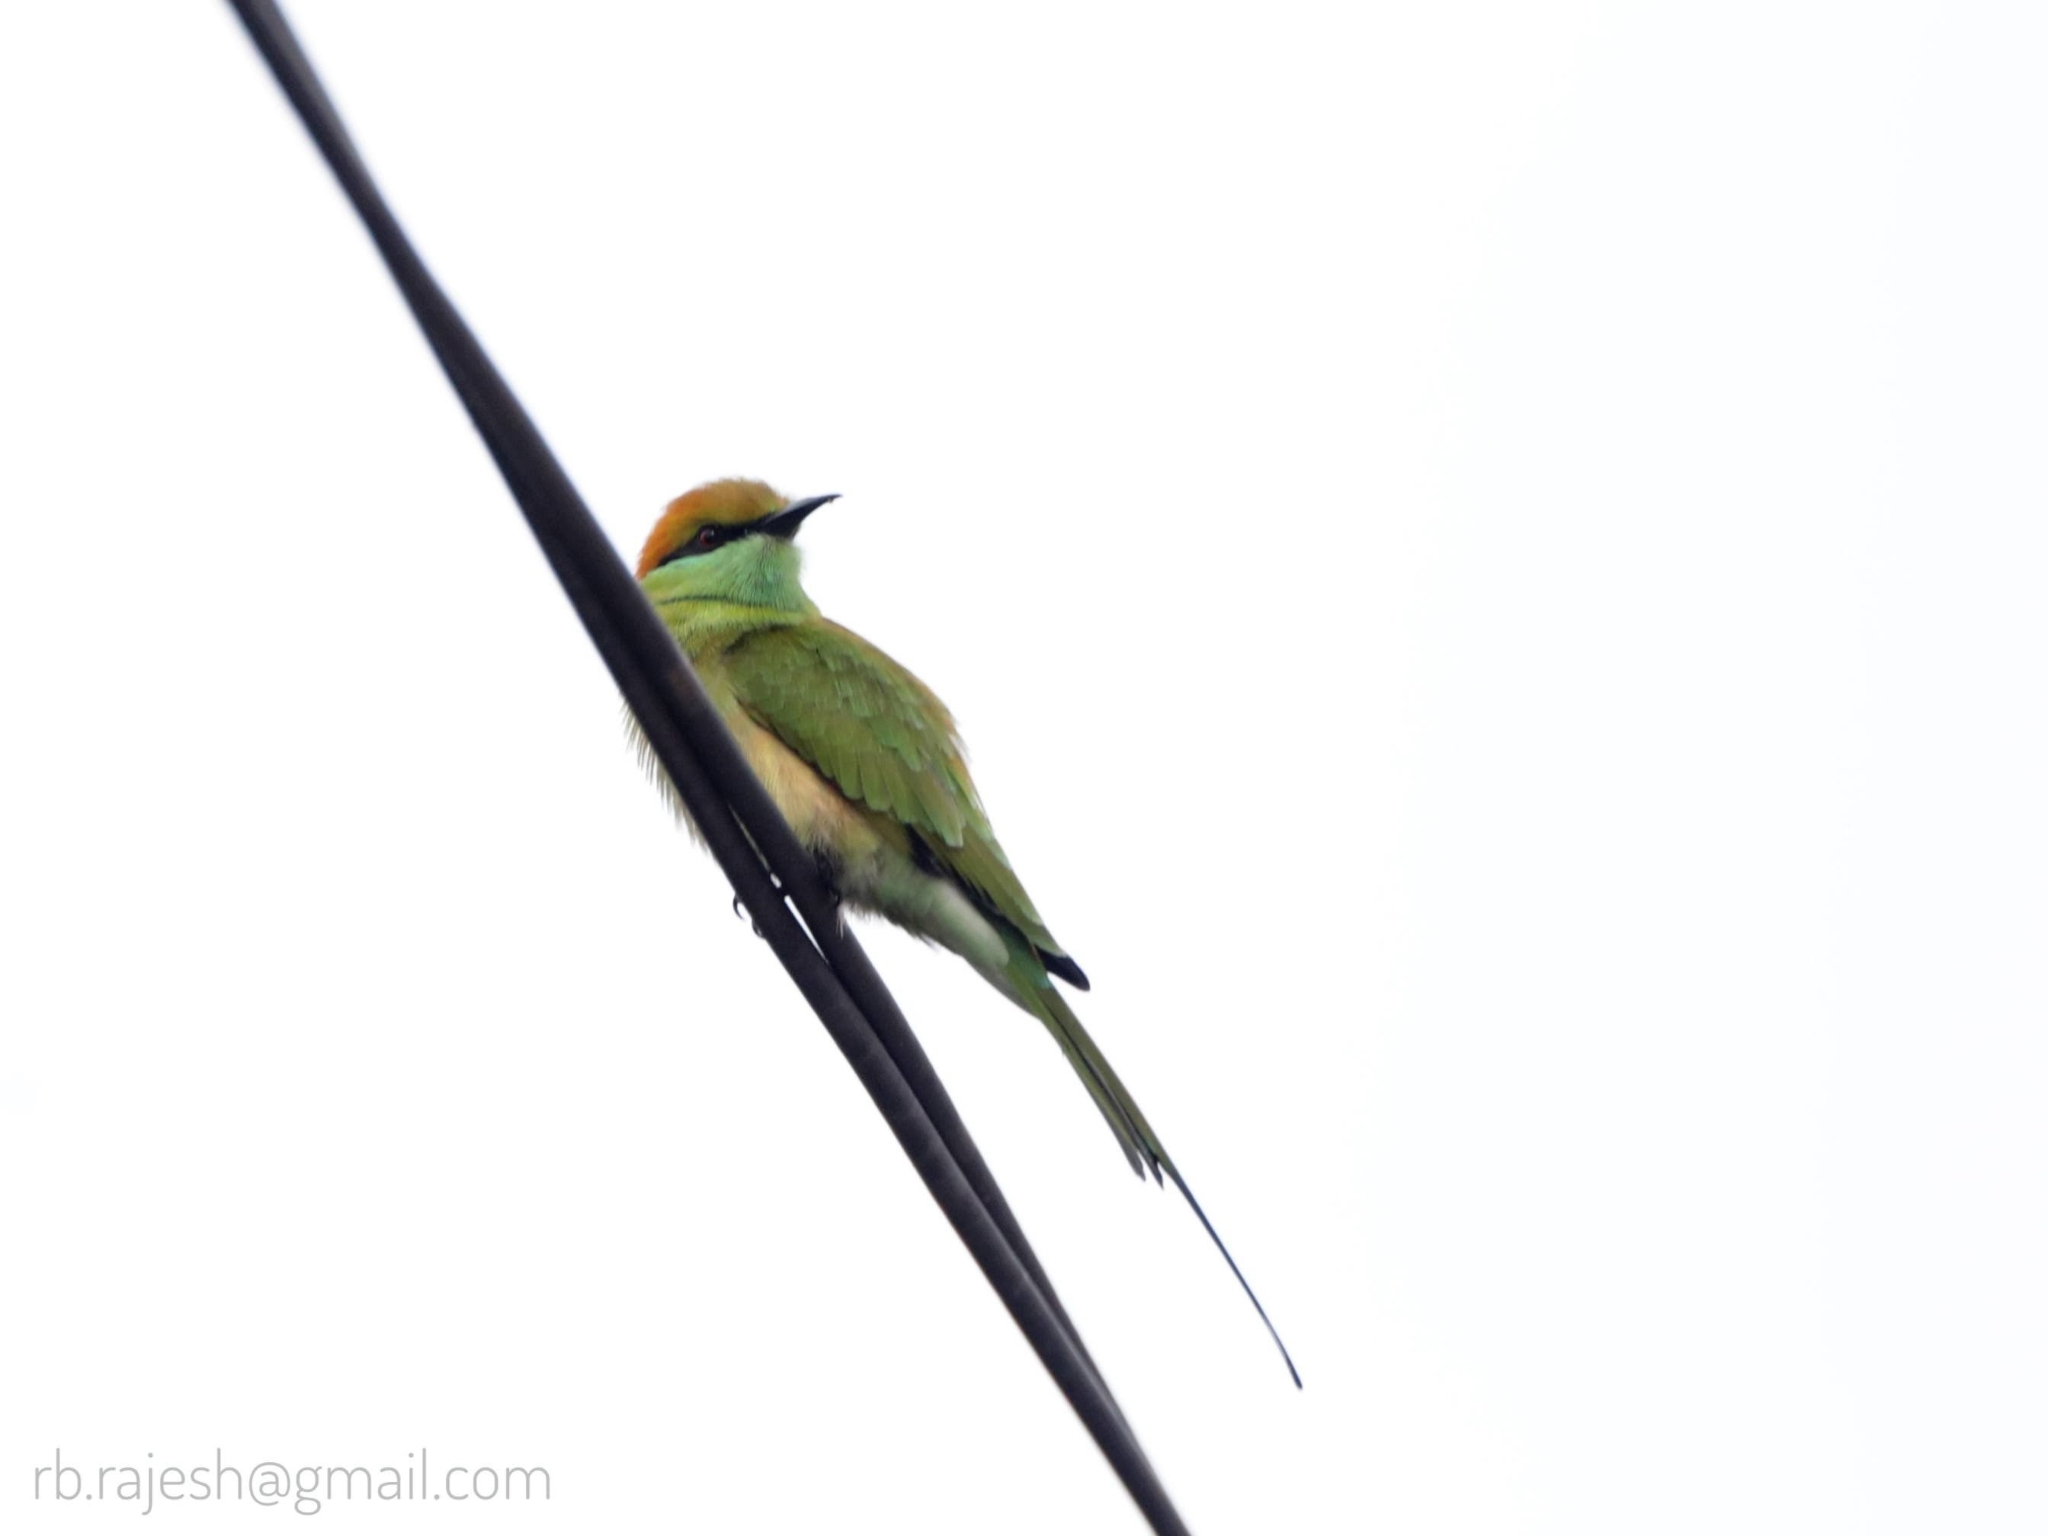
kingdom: Animalia
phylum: Chordata
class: Aves
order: Coraciiformes
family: Meropidae
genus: Merops
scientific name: Merops orientalis
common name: Green bee-eater
